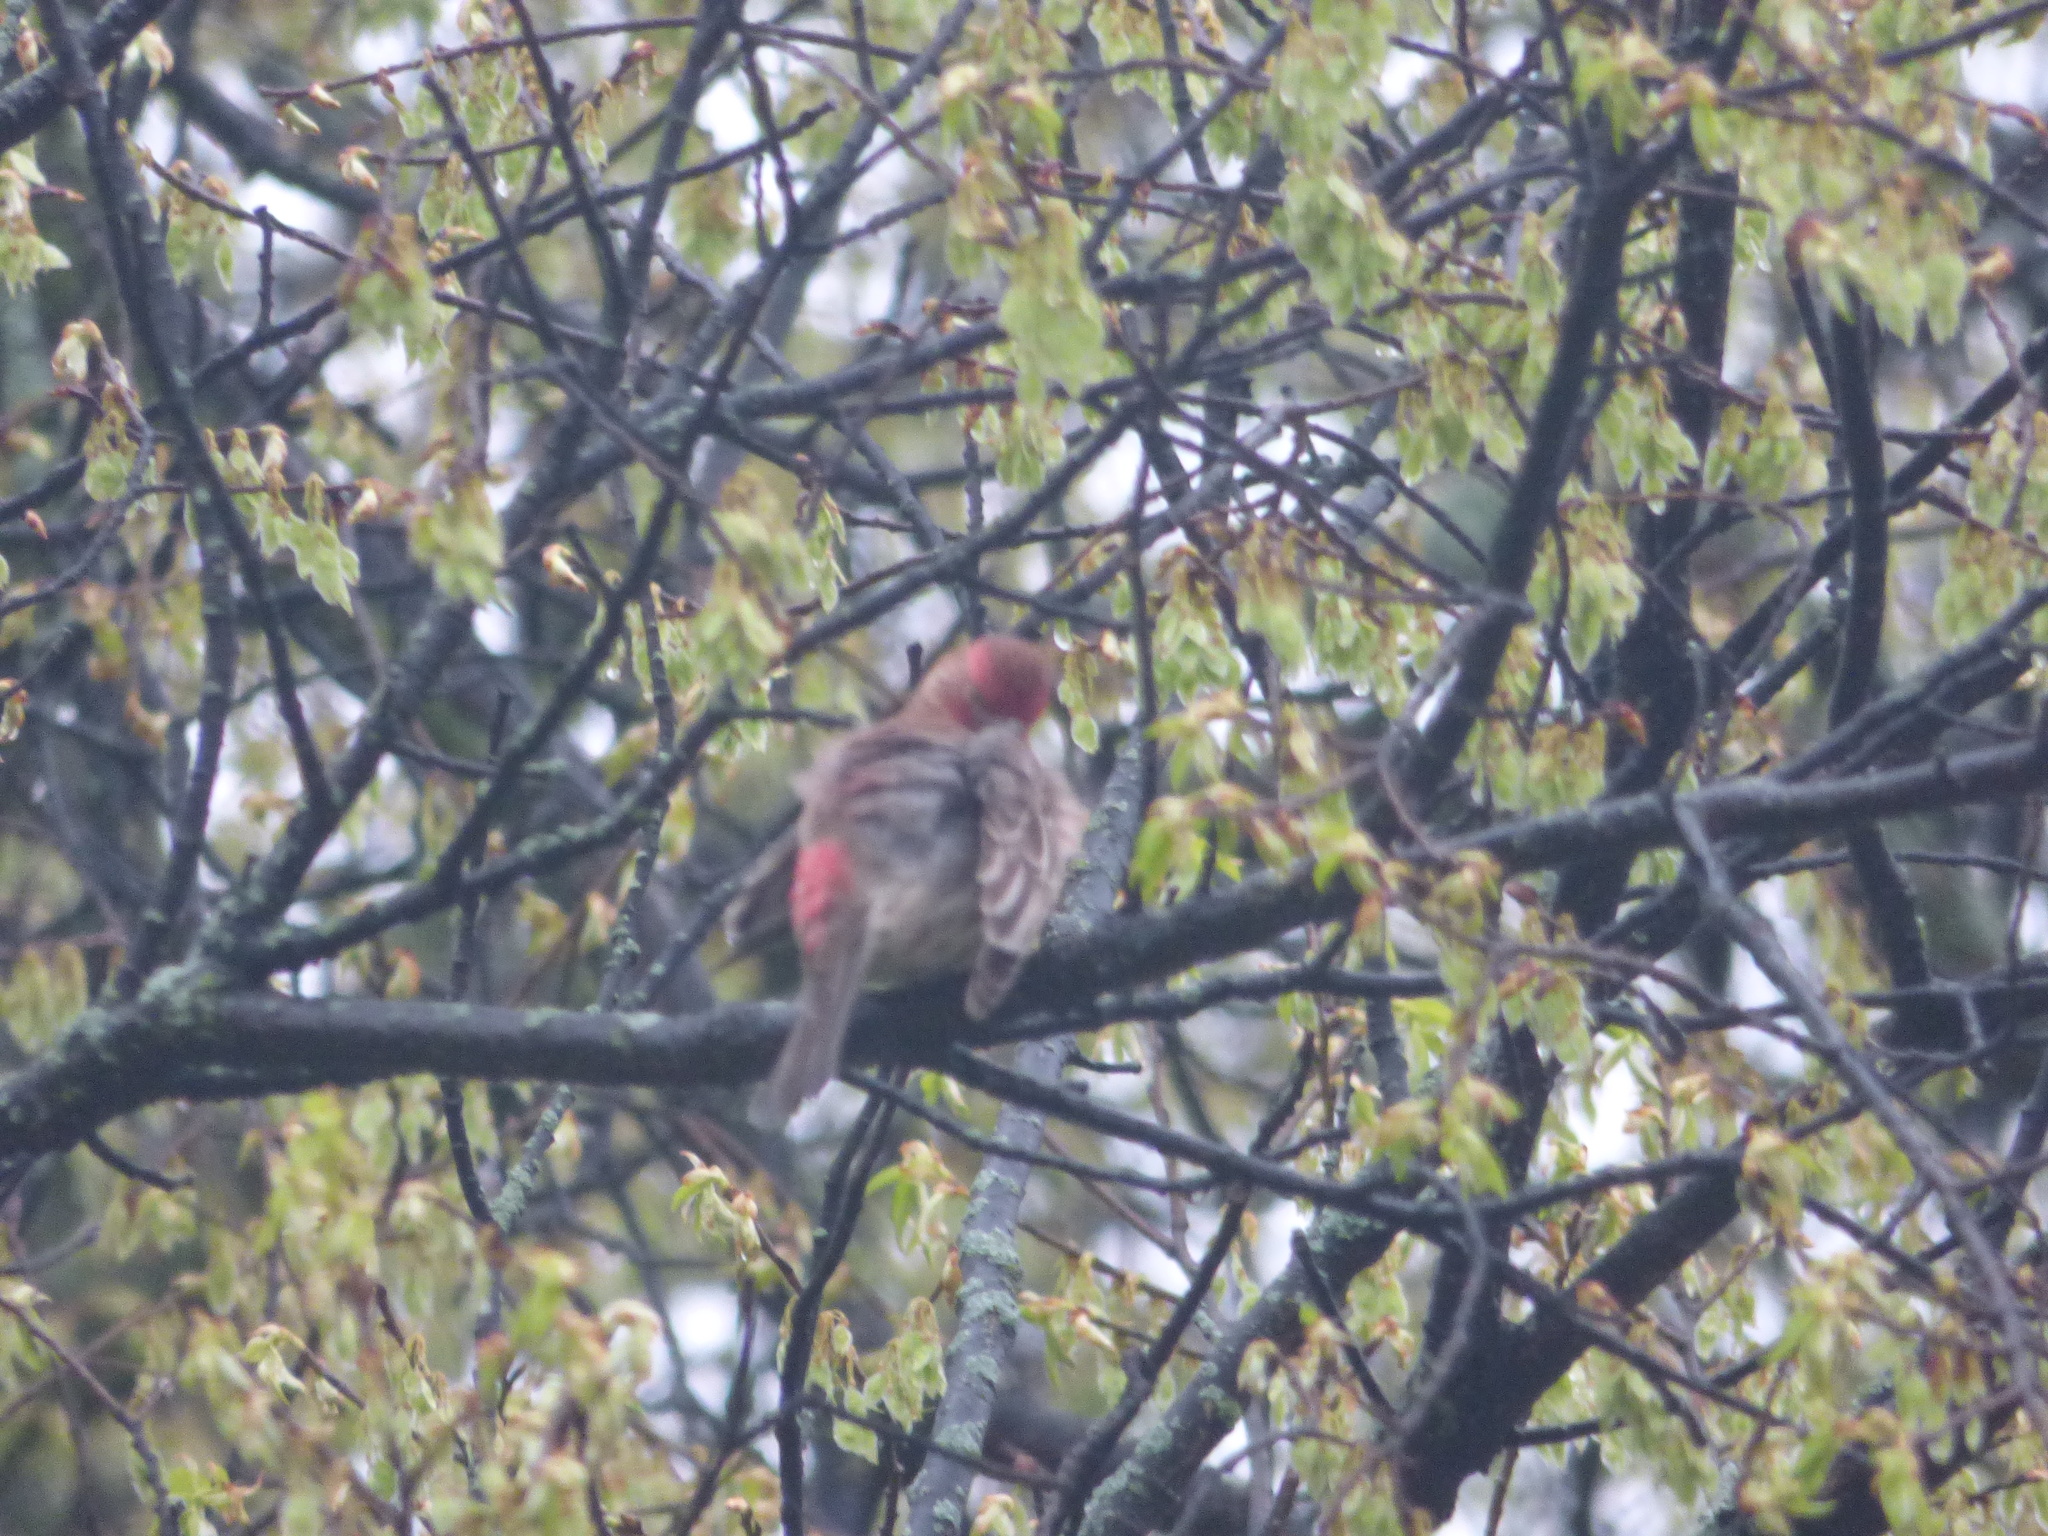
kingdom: Animalia
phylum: Chordata
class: Aves
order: Passeriformes
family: Fringillidae
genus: Haemorhous
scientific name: Haemorhous mexicanus
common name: House finch
